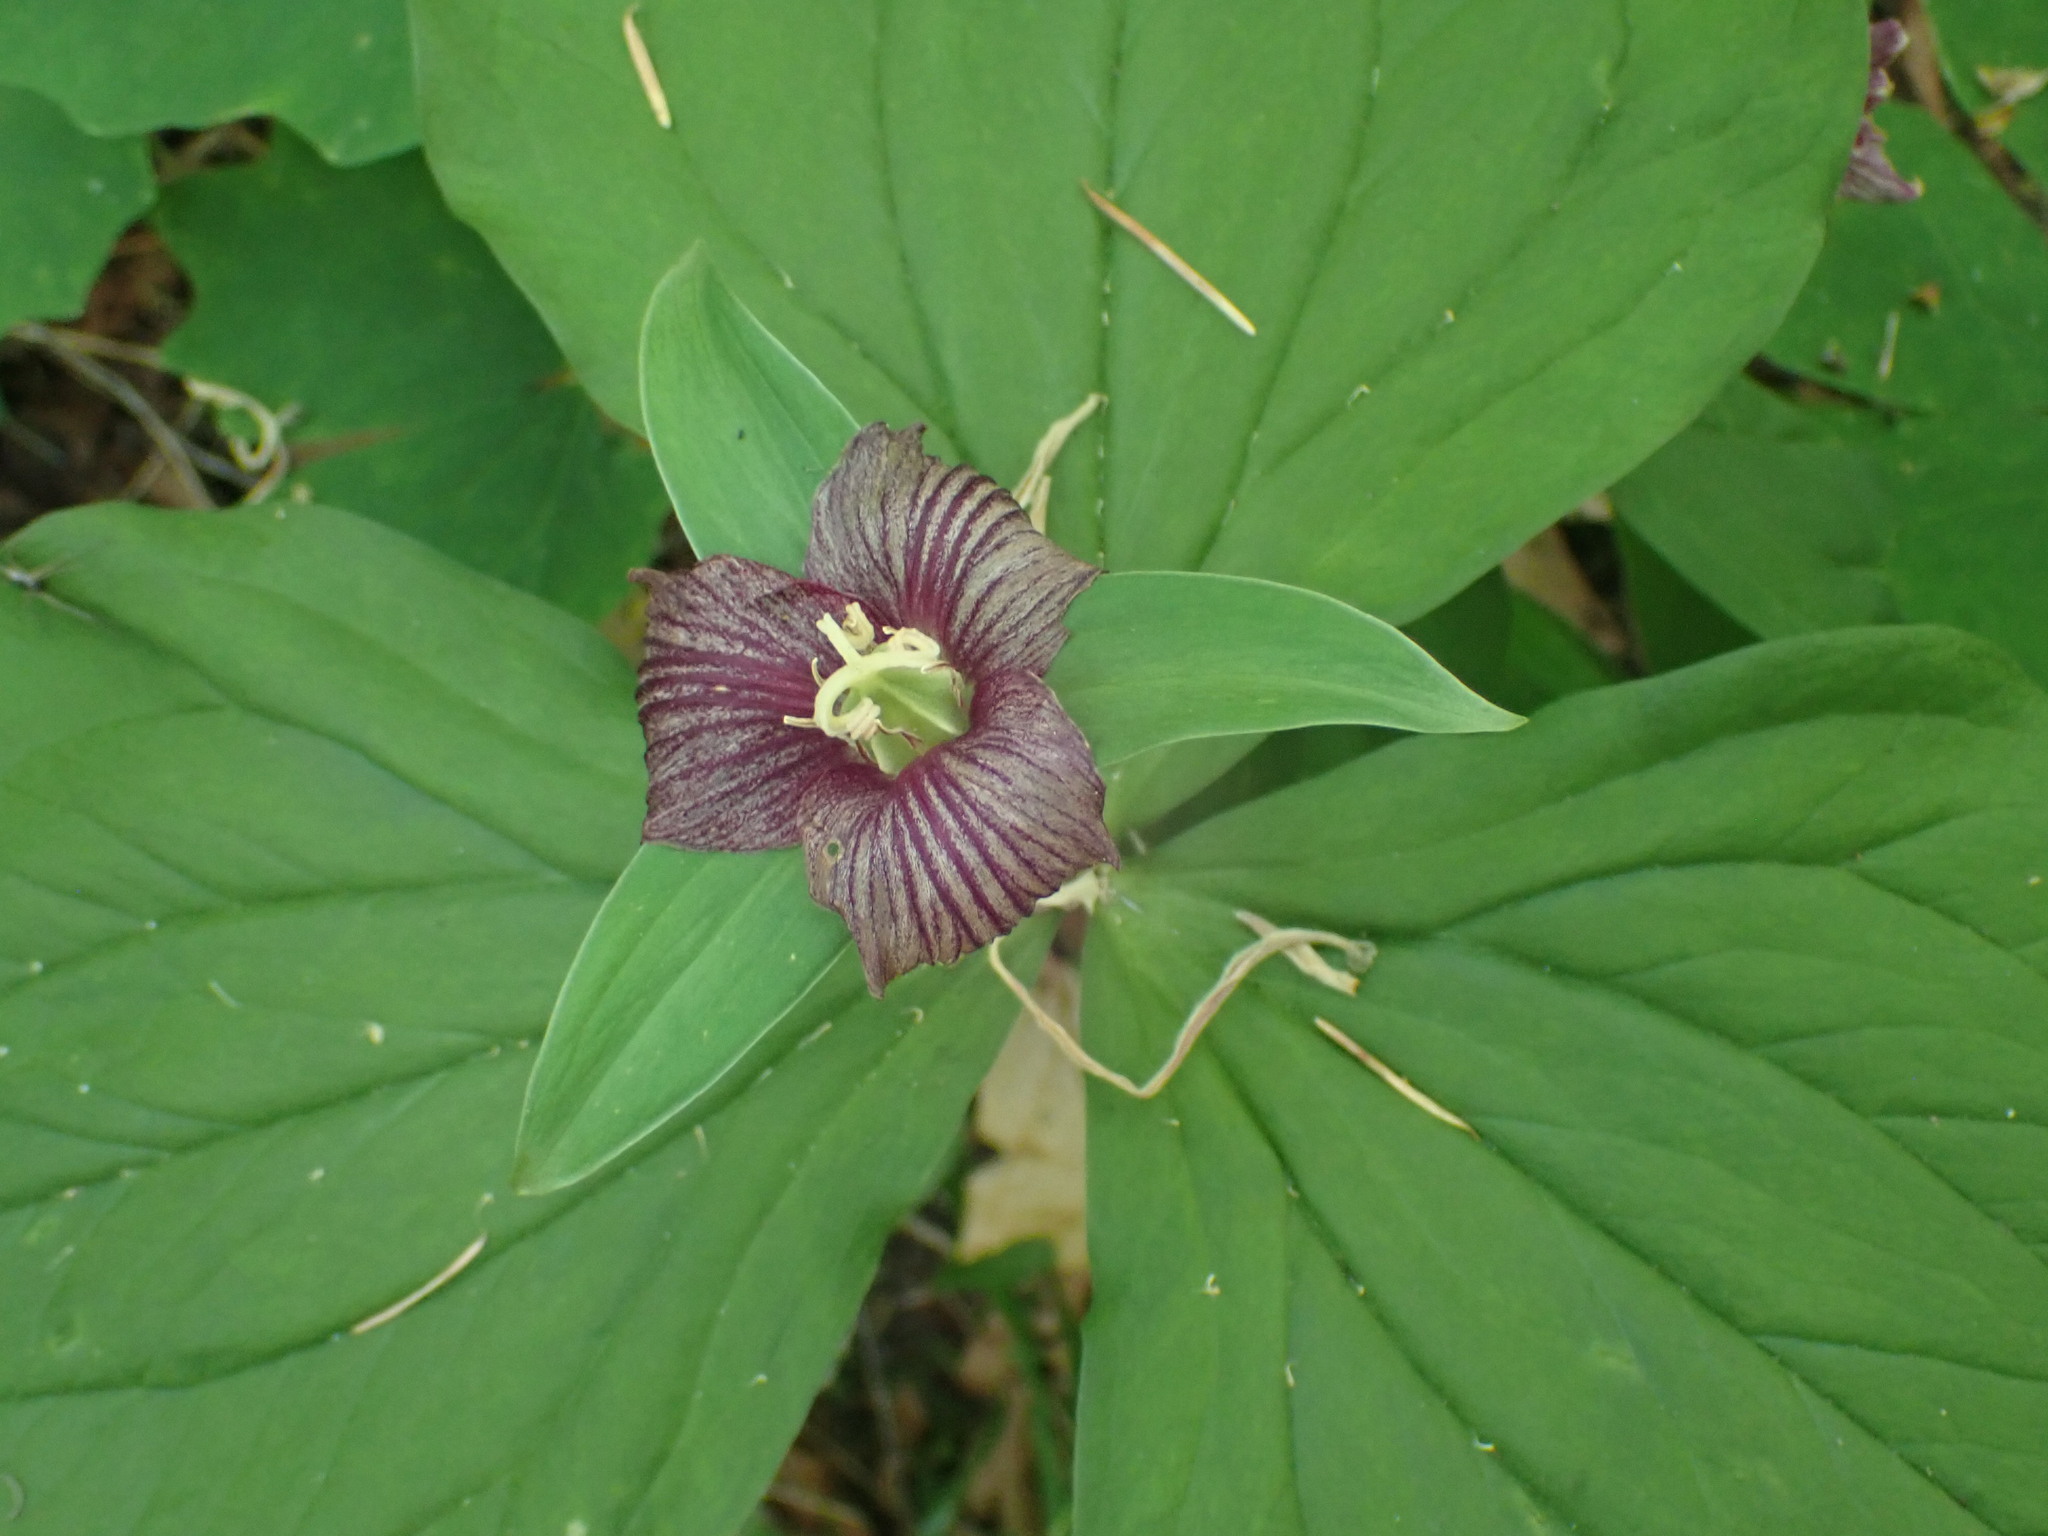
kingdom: Plantae
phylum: Tracheophyta
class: Liliopsida
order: Liliales
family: Melanthiaceae
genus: Trillium
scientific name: Trillium ovatum
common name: Pacific trillium
